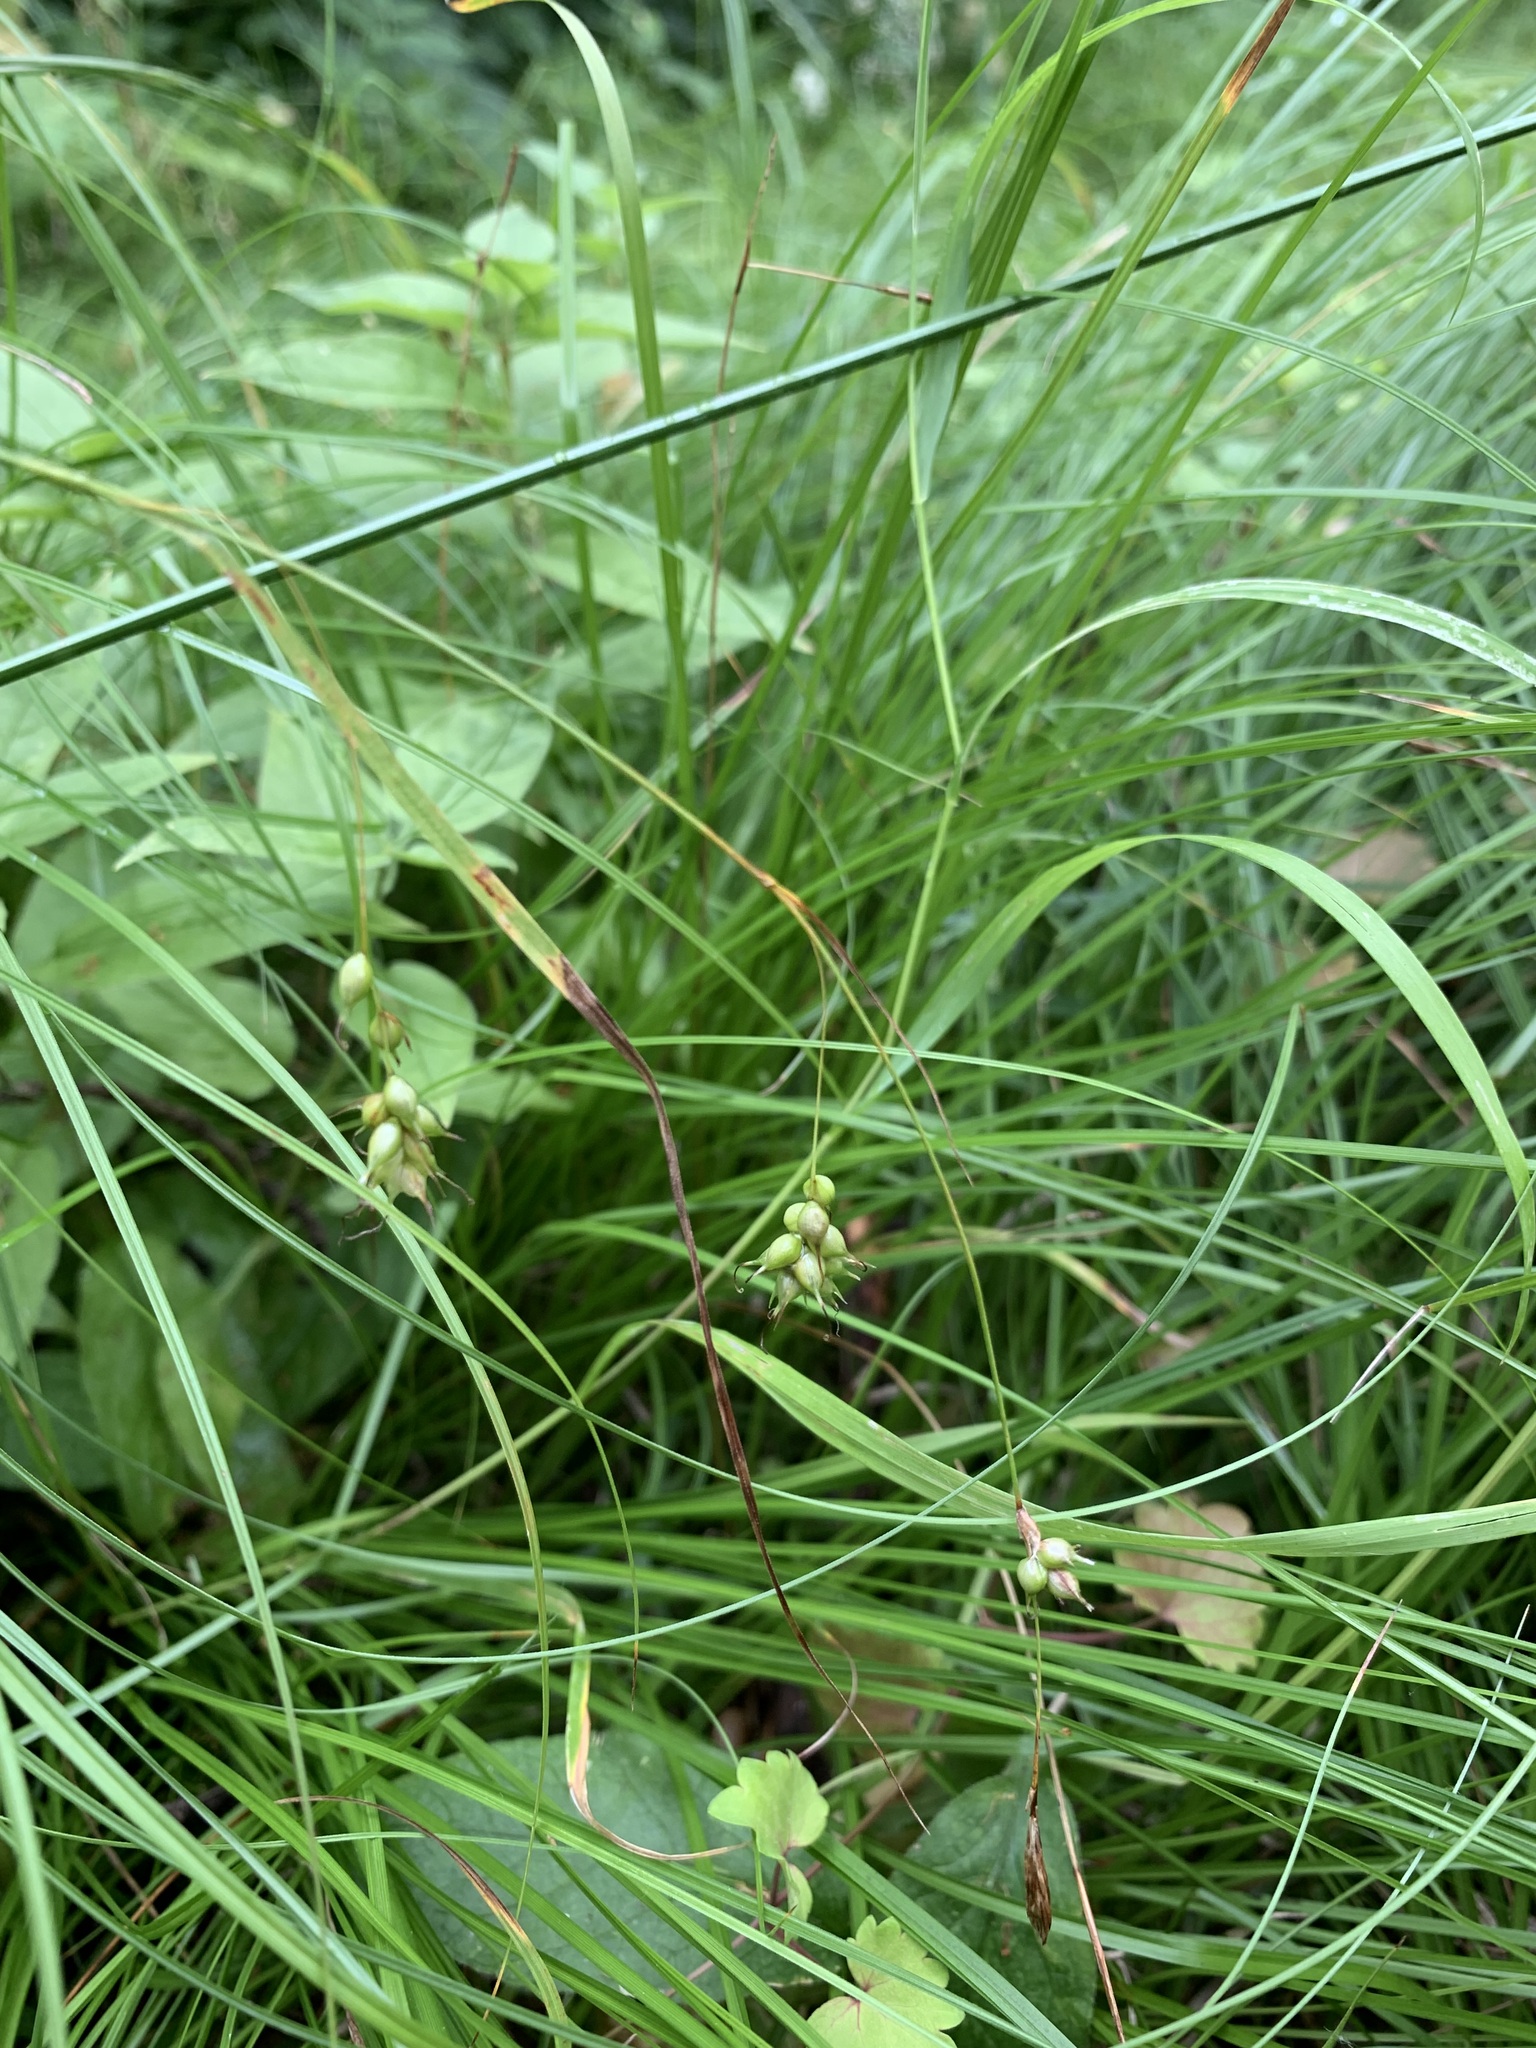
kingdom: Plantae
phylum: Tracheophyta
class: Liliopsida
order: Poales
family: Cyperaceae
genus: Carex
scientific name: Carex arnellii
